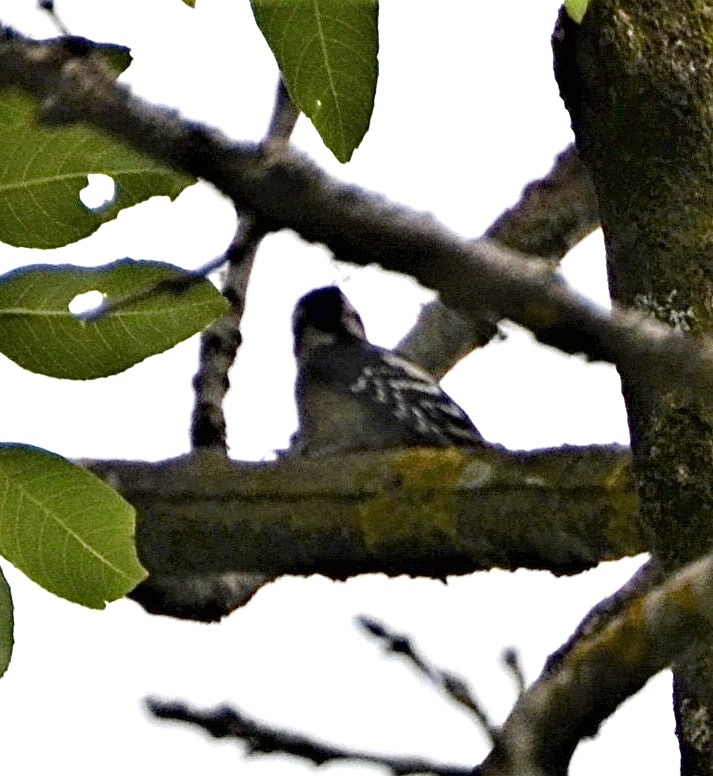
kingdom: Animalia
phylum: Chordata
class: Aves
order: Piciformes
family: Picidae
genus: Dendrocopos
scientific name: Dendrocopos major
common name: Great spotted woodpecker
